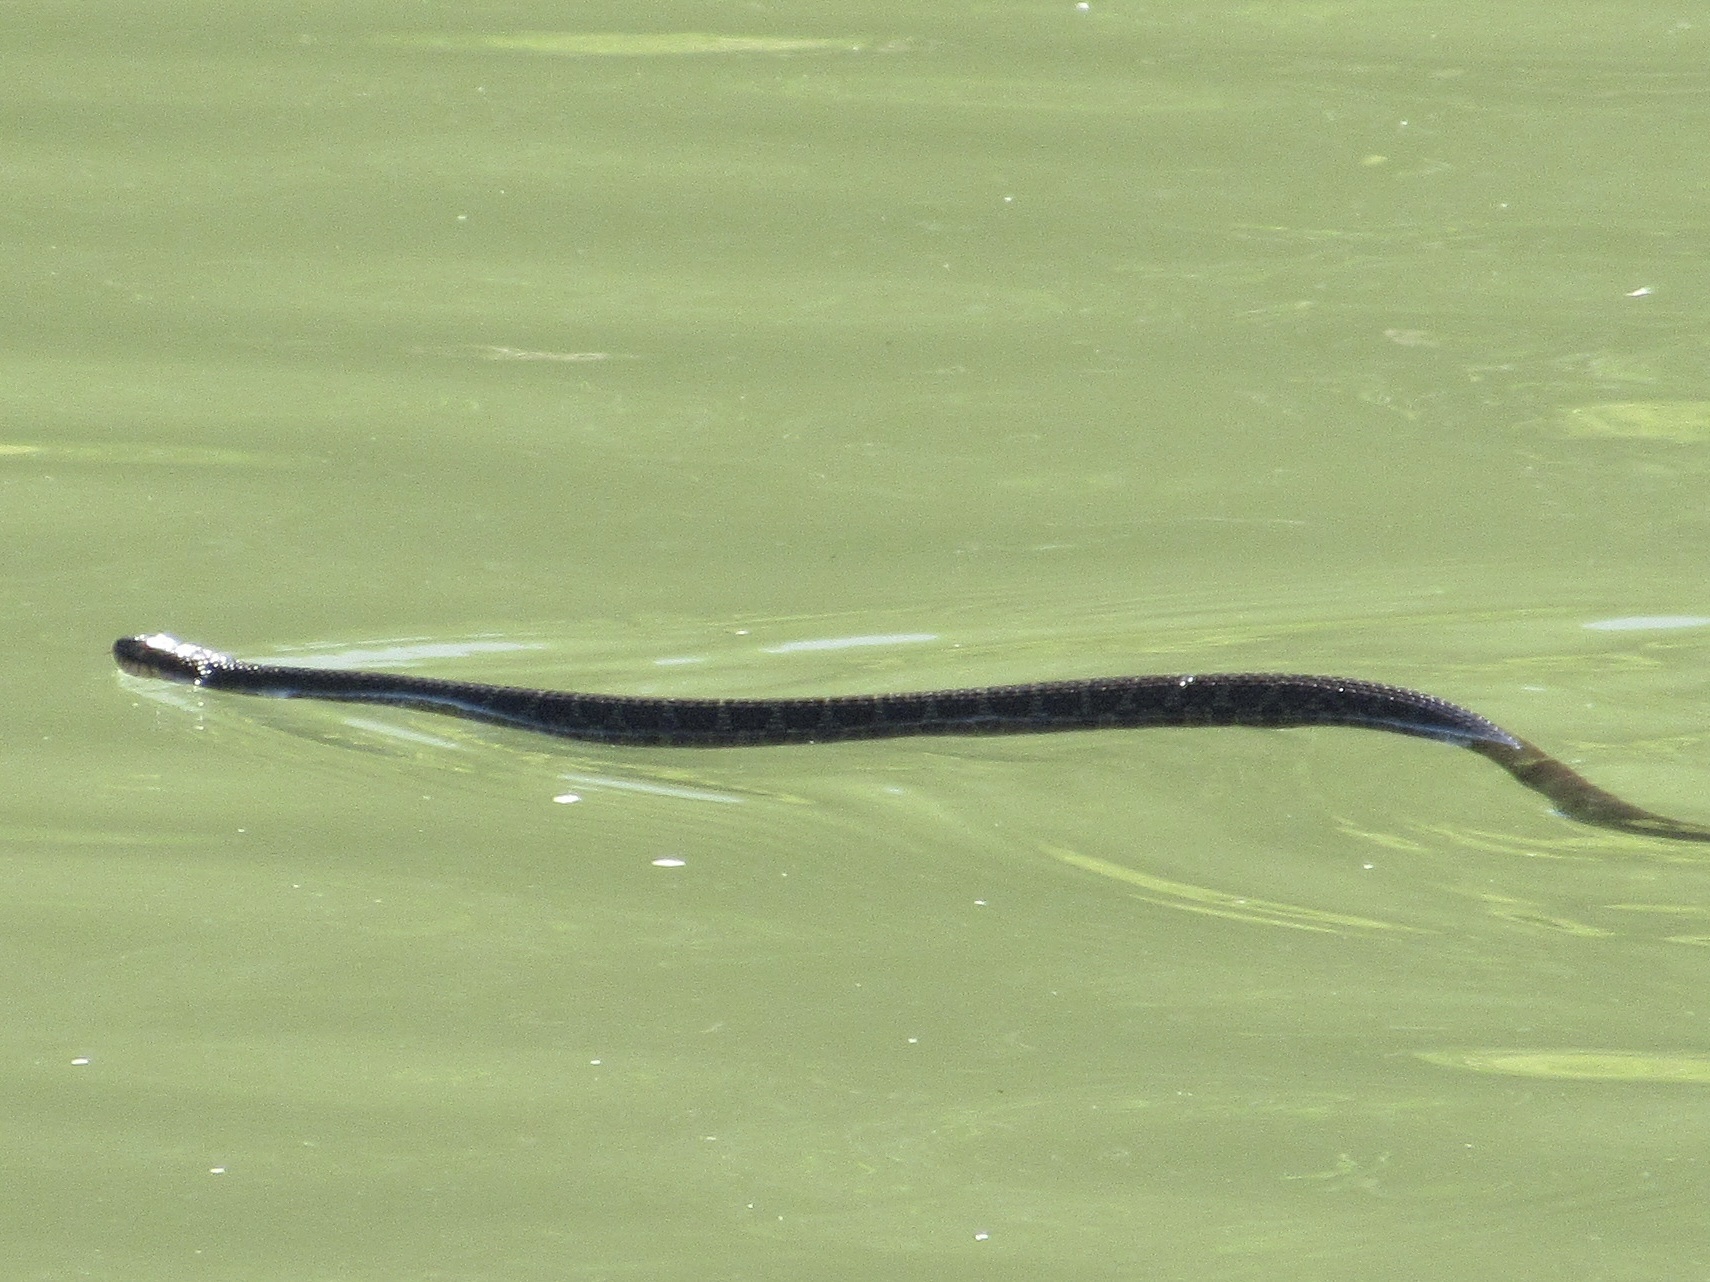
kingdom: Animalia
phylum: Chordata
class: Squamata
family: Colubridae
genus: Nerodia
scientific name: Nerodia erythrogaster
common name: Plainbelly water snake
